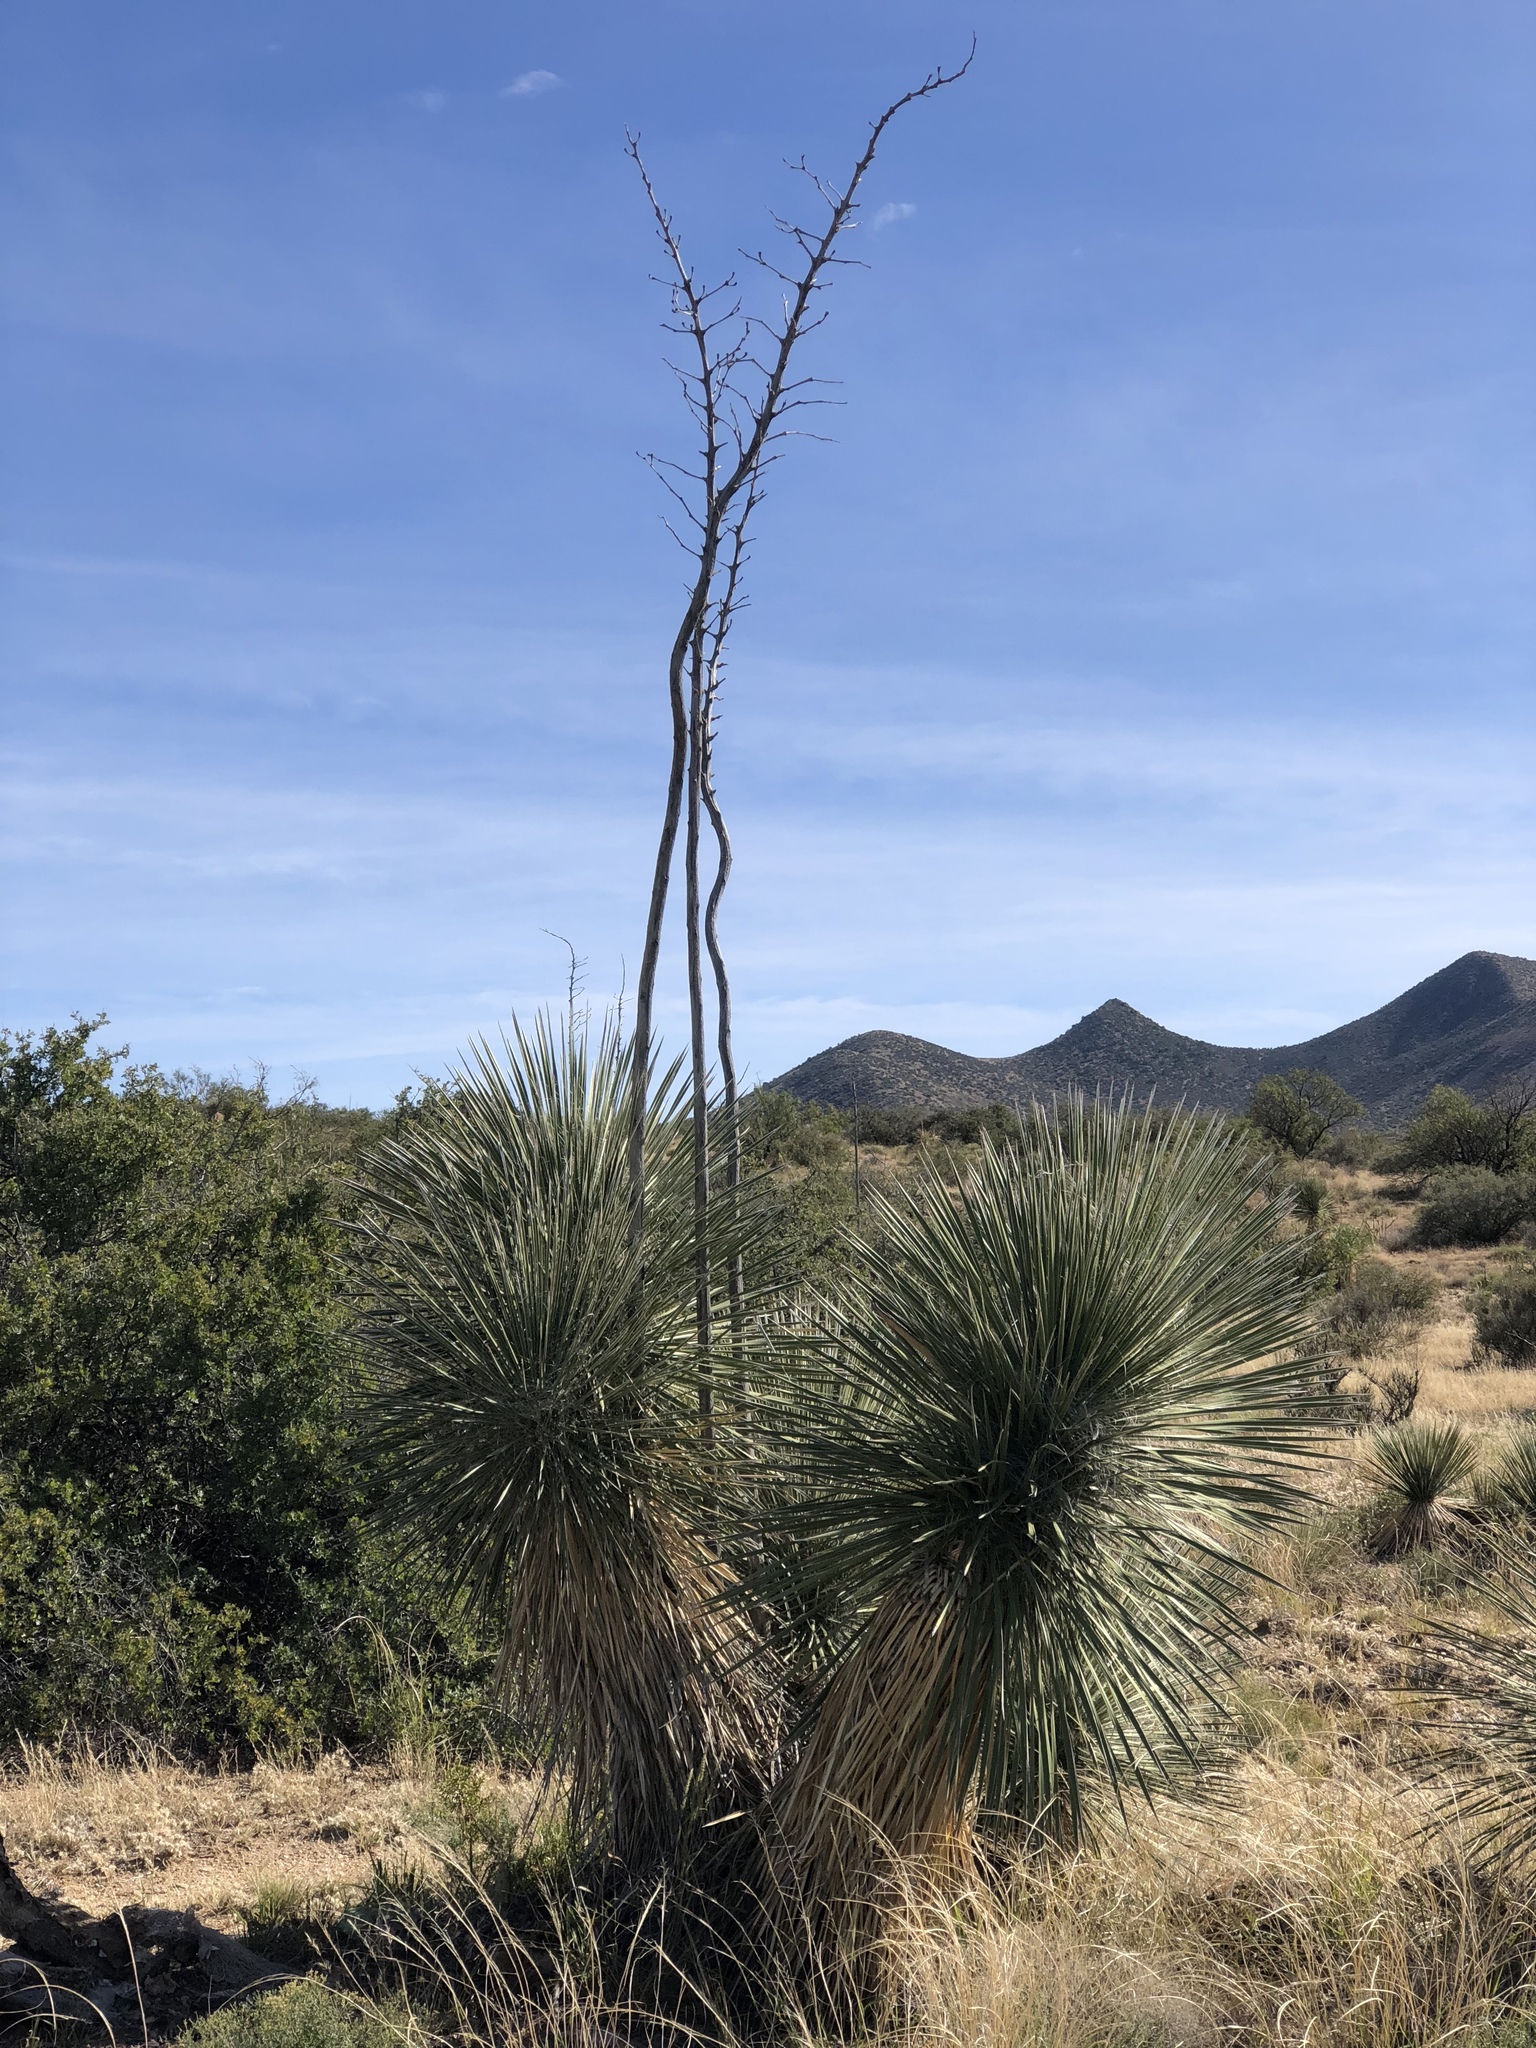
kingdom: Plantae
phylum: Tracheophyta
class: Liliopsida
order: Asparagales
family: Asparagaceae
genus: Yucca
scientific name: Yucca elata
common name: Palmella
